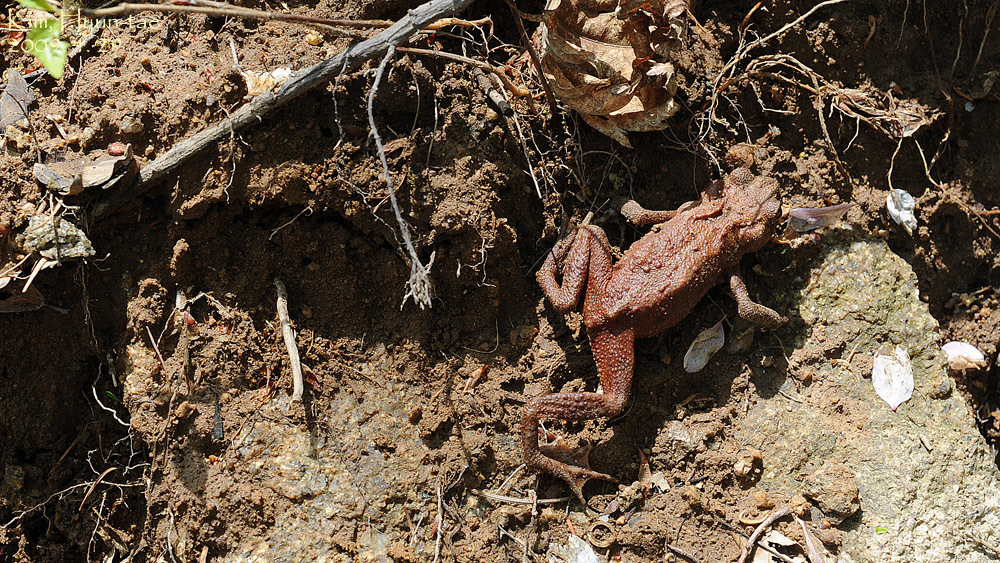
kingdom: Animalia
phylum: Chordata
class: Amphibia
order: Anura
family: Bufonidae
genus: Bufo
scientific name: Bufo stejnegeri
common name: Water toad
